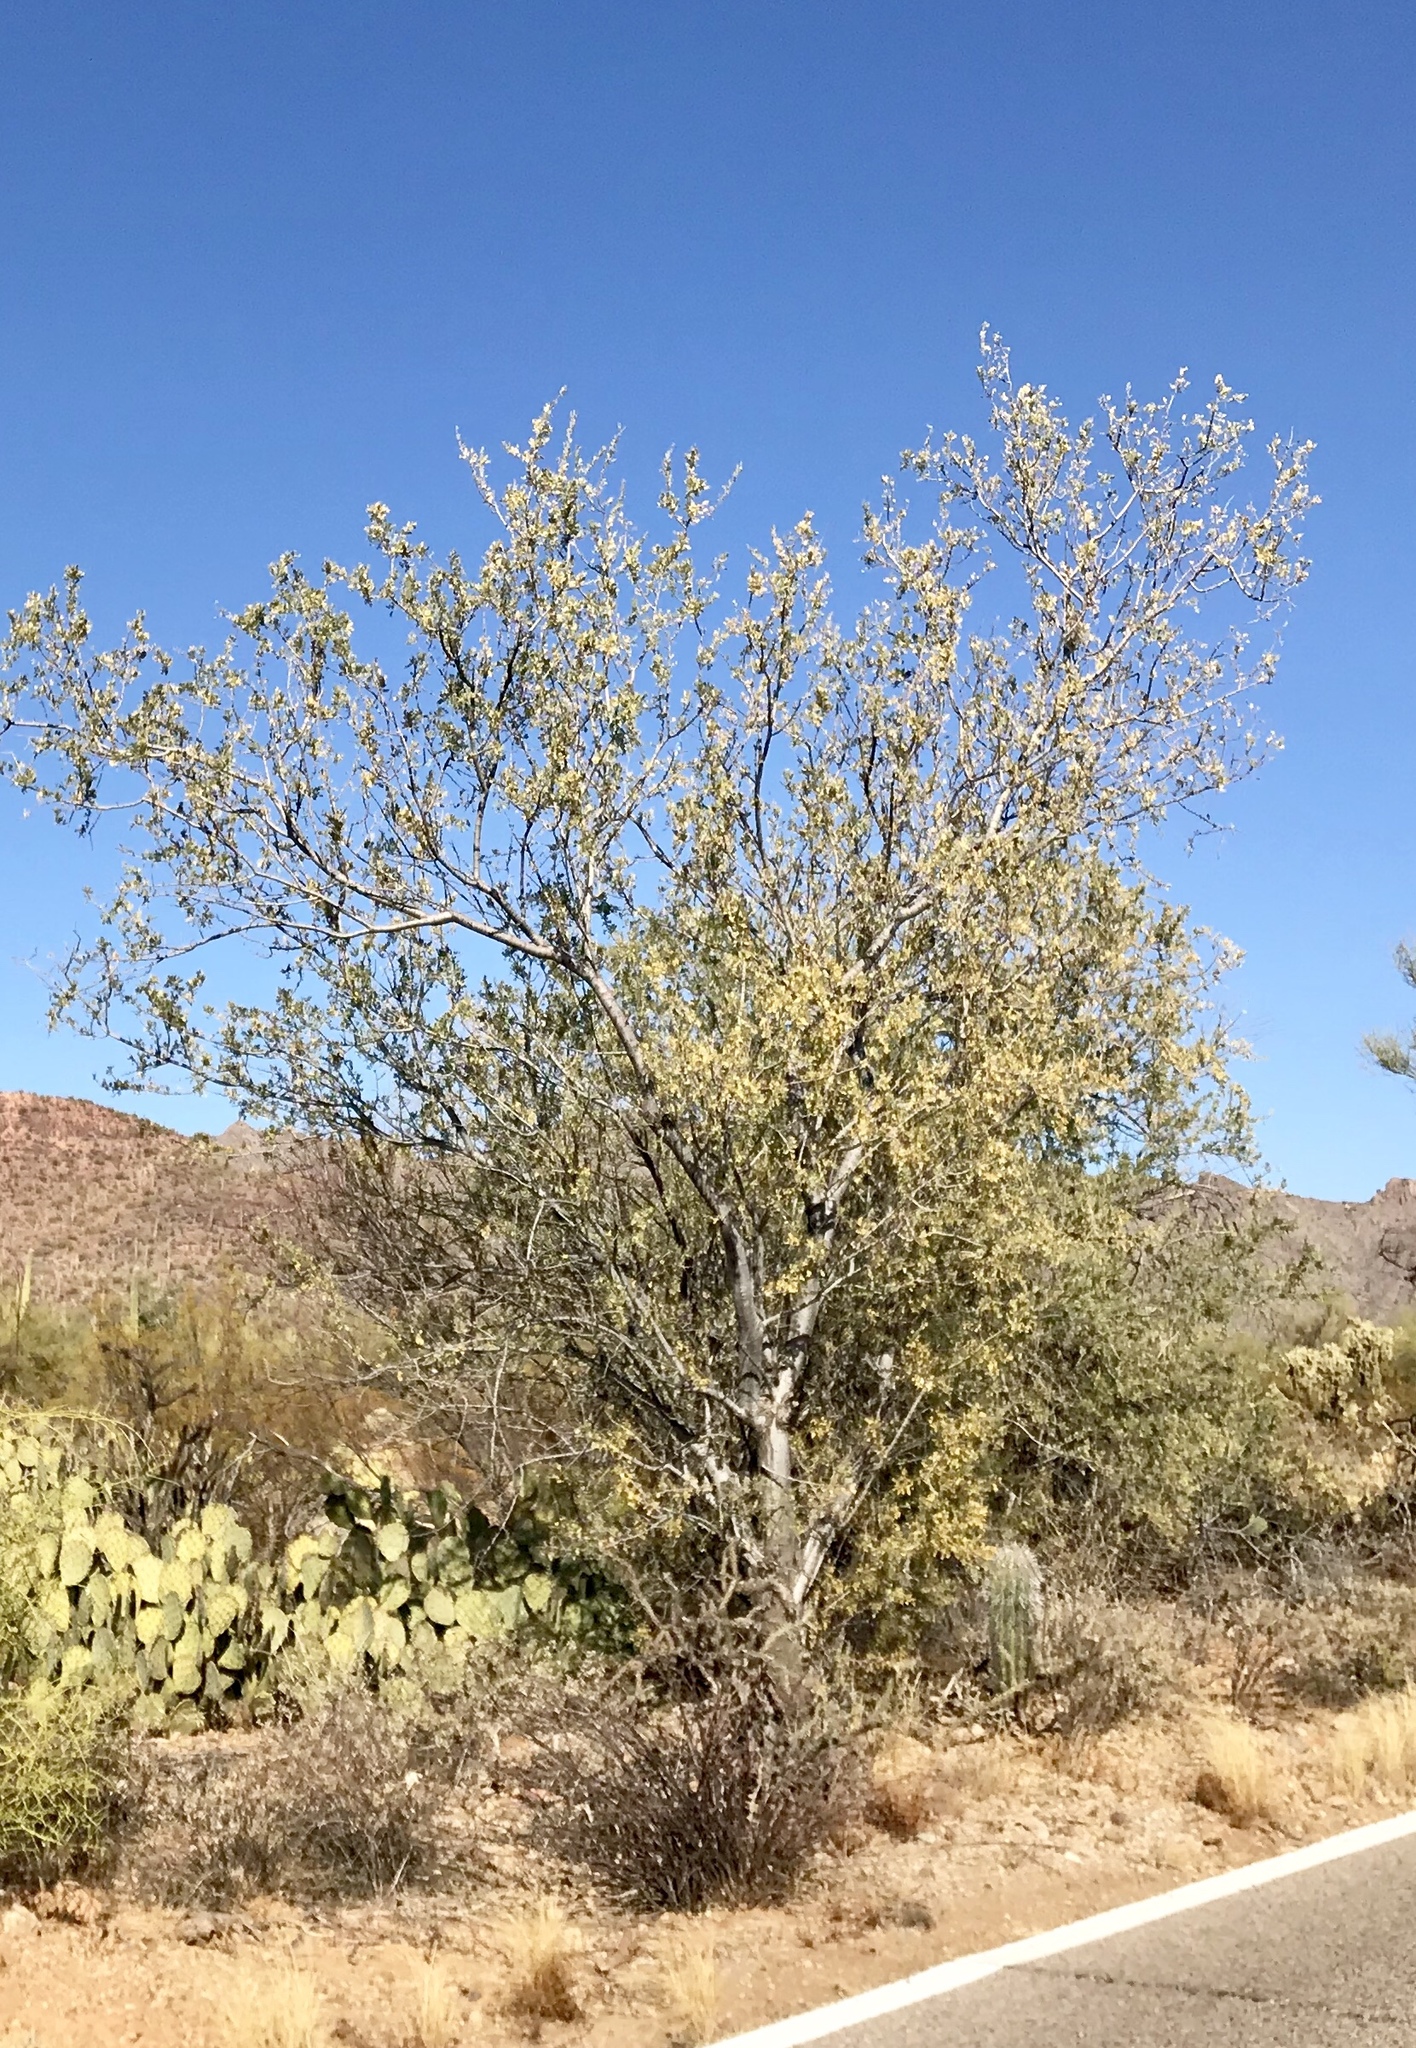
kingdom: Plantae
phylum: Tracheophyta
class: Magnoliopsida
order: Fabales
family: Fabaceae
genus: Olneya
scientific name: Olneya tesota
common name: Desert ironwood
